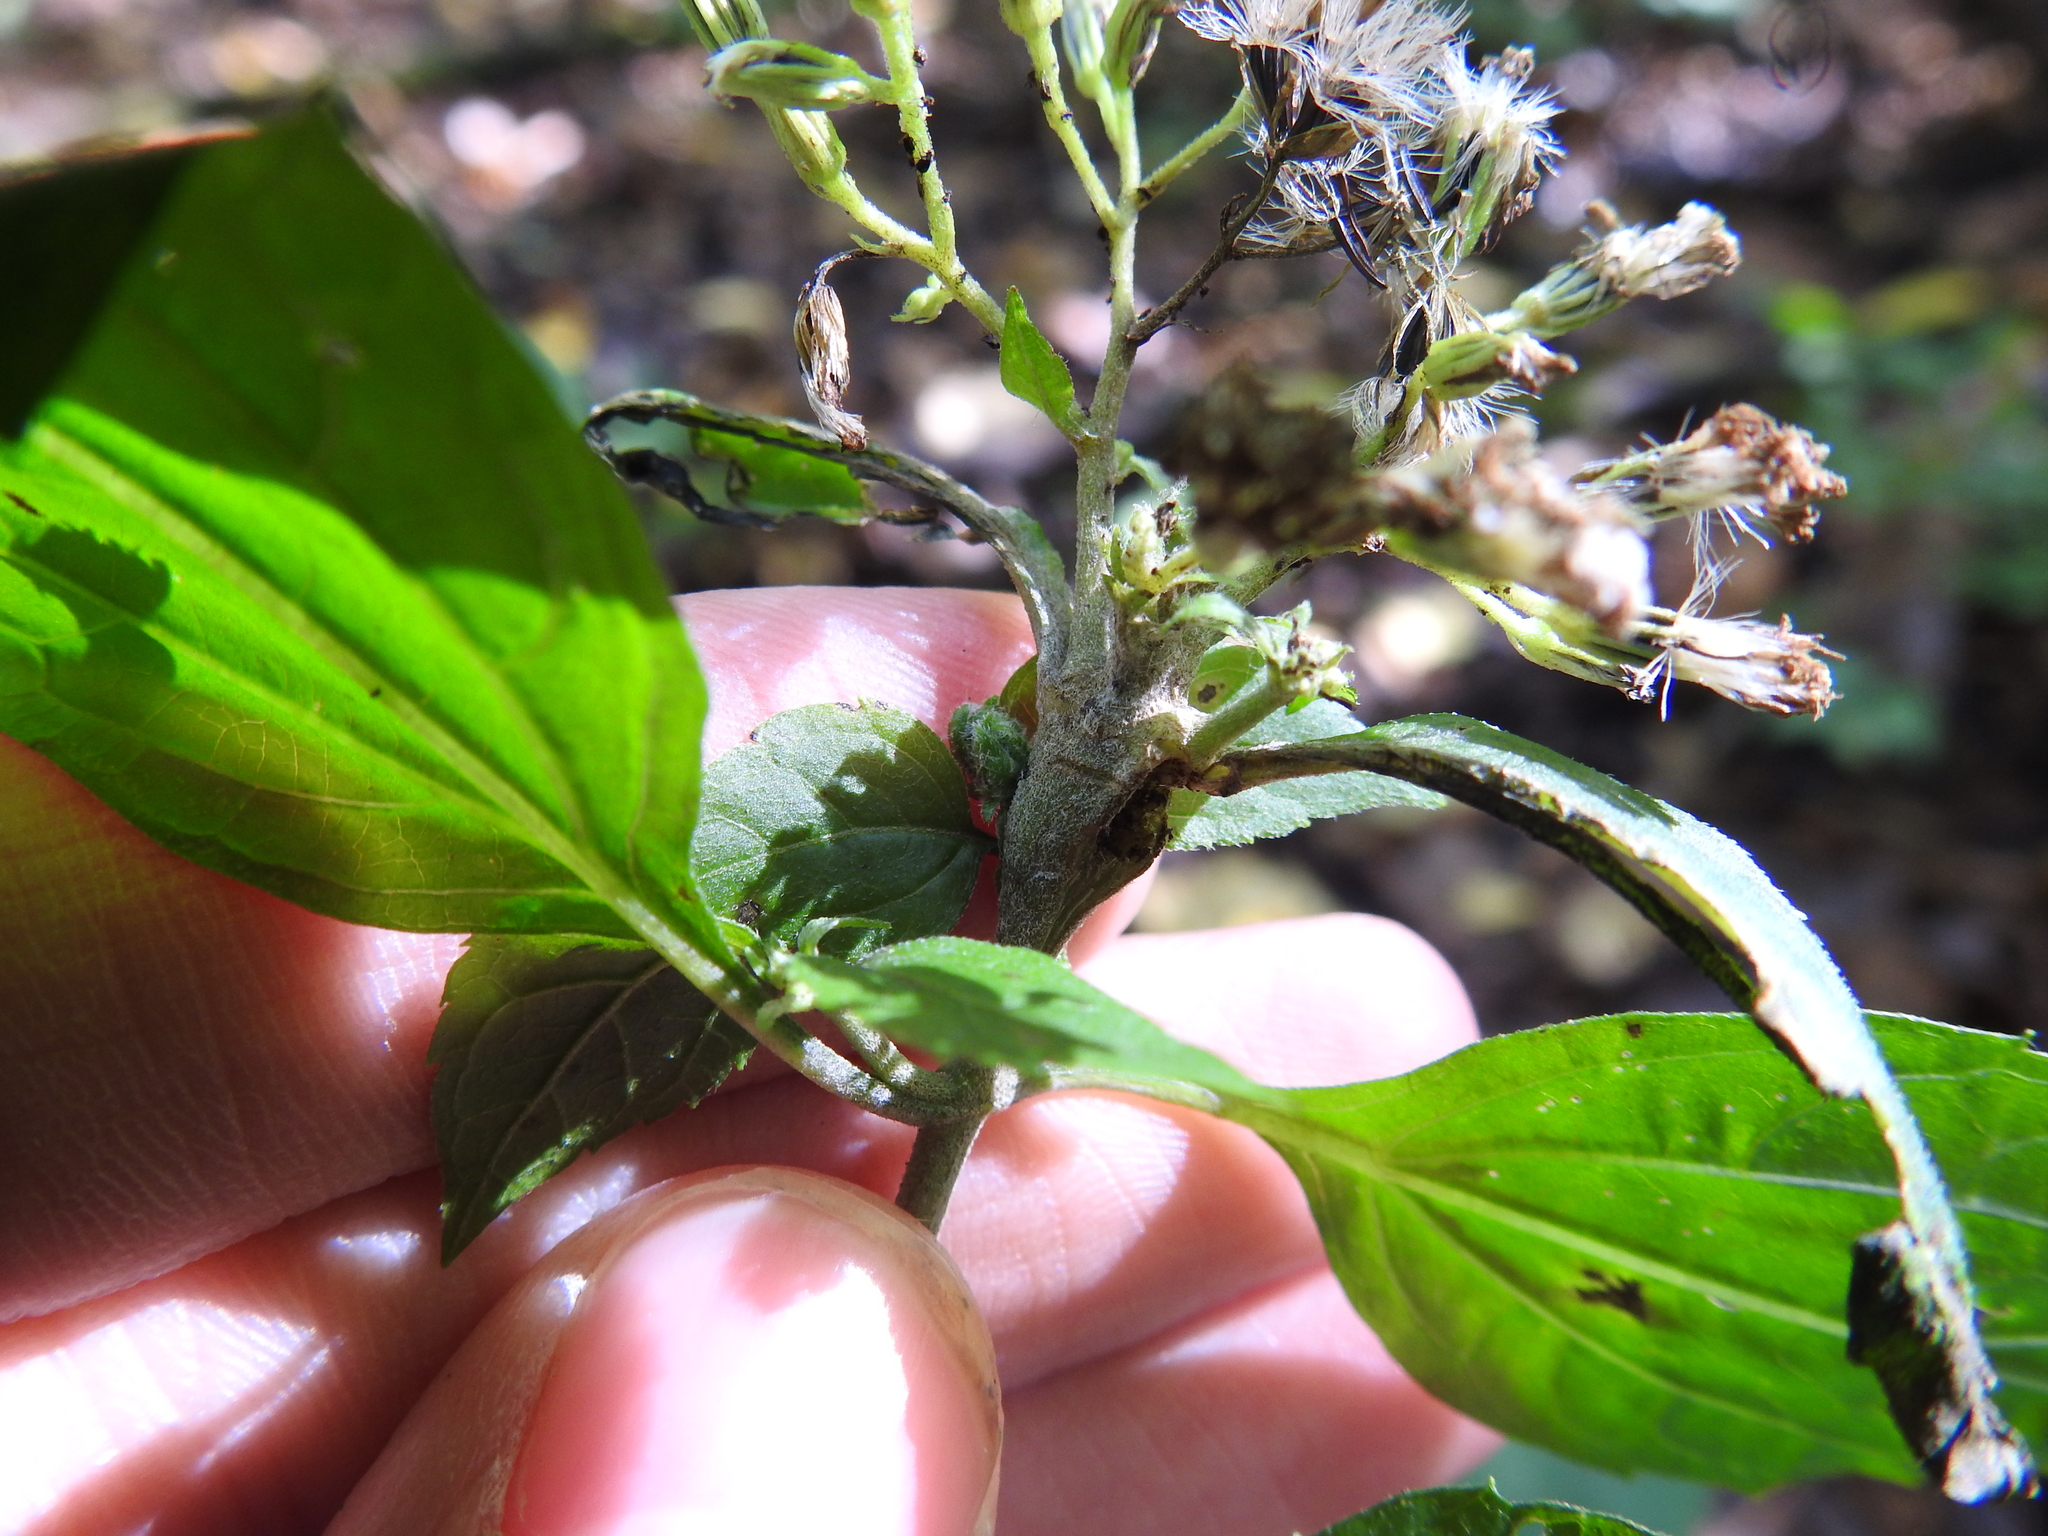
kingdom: Animalia
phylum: Arthropoda
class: Insecta
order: Diptera
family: Cecidomyiidae
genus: Asphondylia
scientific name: Asphondylia eupatorii
